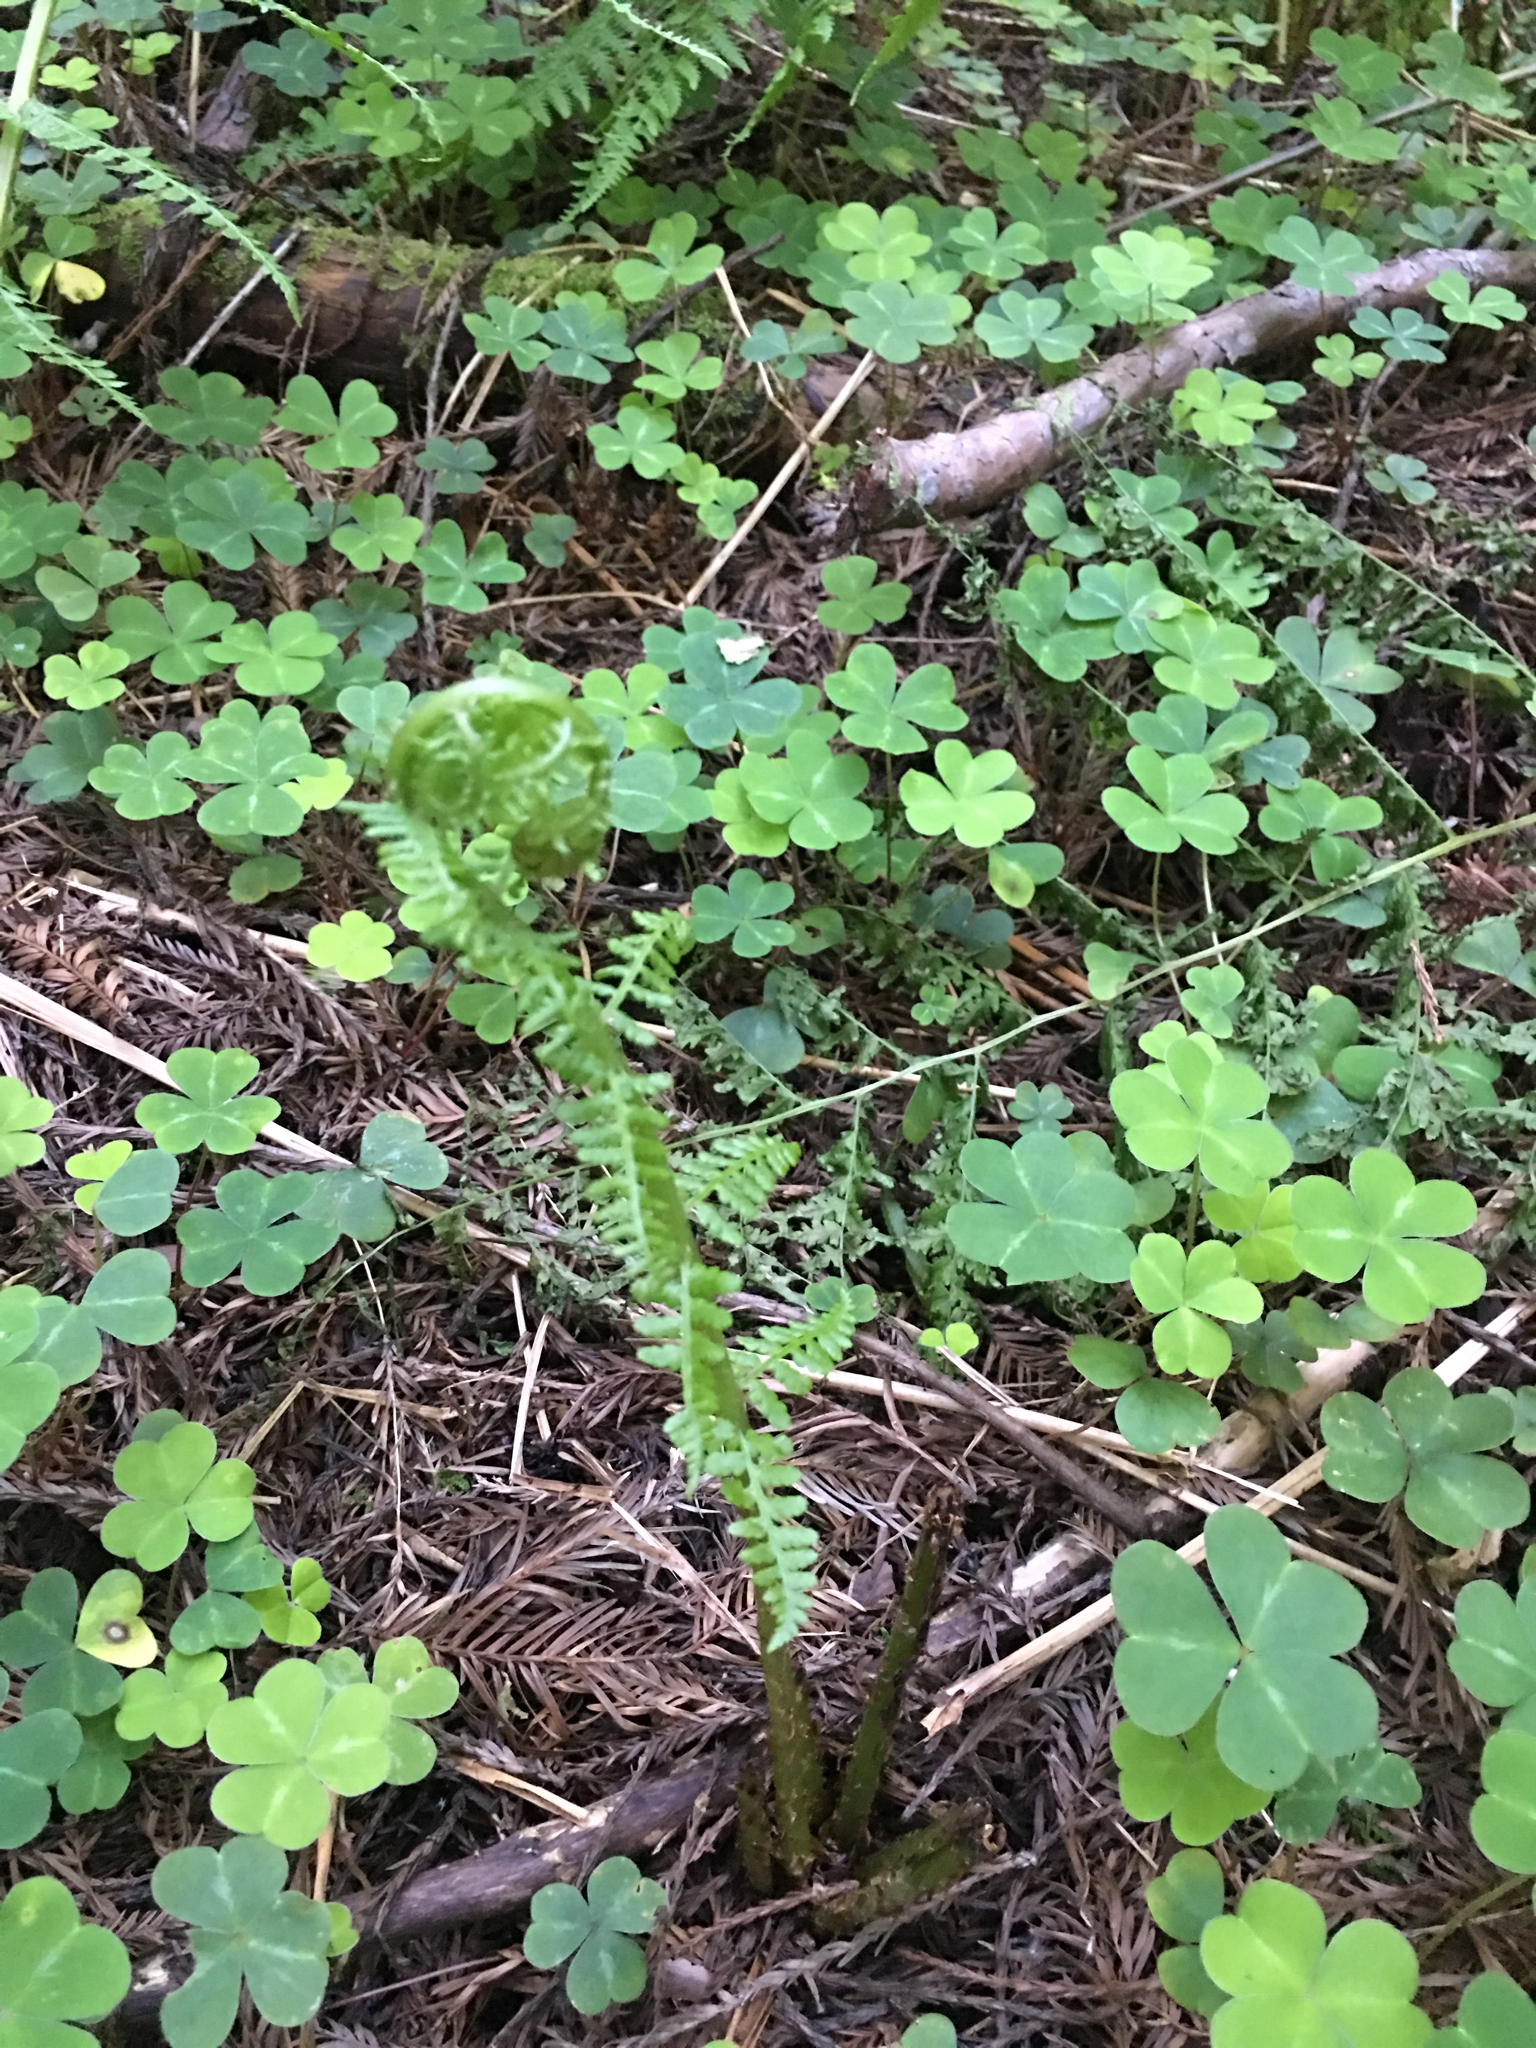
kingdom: Plantae
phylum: Tracheophyta
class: Polypodiopsida
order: Polypodiales
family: Athyriaceae
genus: Athyrium
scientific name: Athyrium filix-femina
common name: Lady fern
